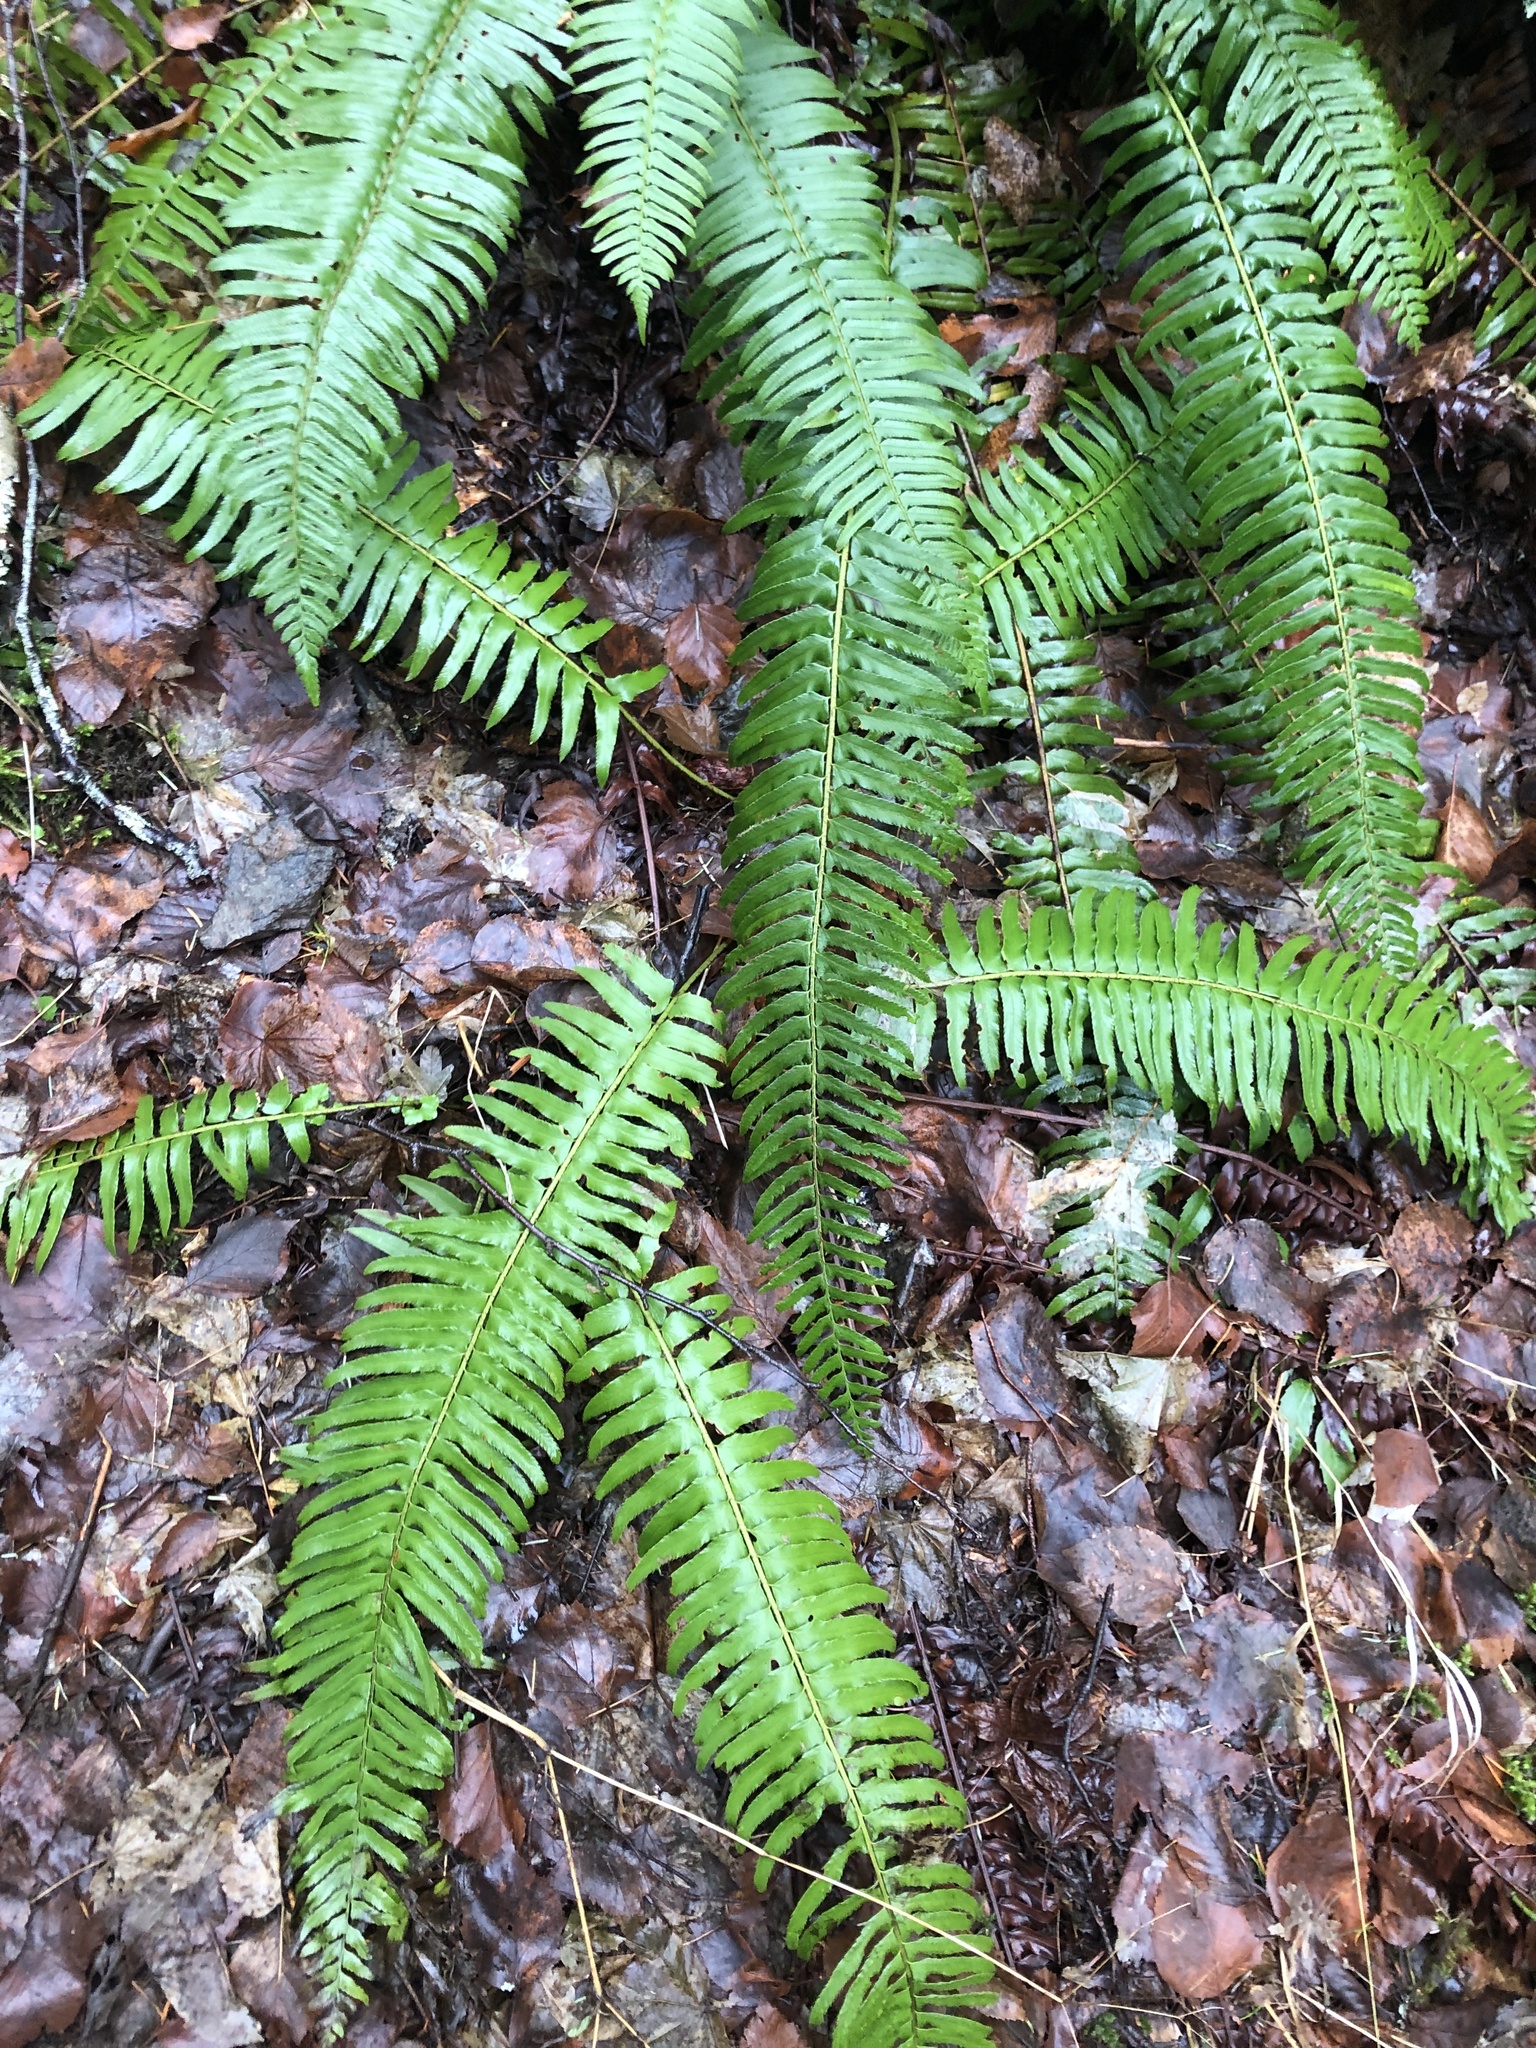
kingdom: Plantae
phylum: Tracheophyta
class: Polypodiopsida
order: Polypodiales
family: Dryopteridaceae
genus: Polystichum
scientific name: Polystichum munitum
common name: Western sword-fern
